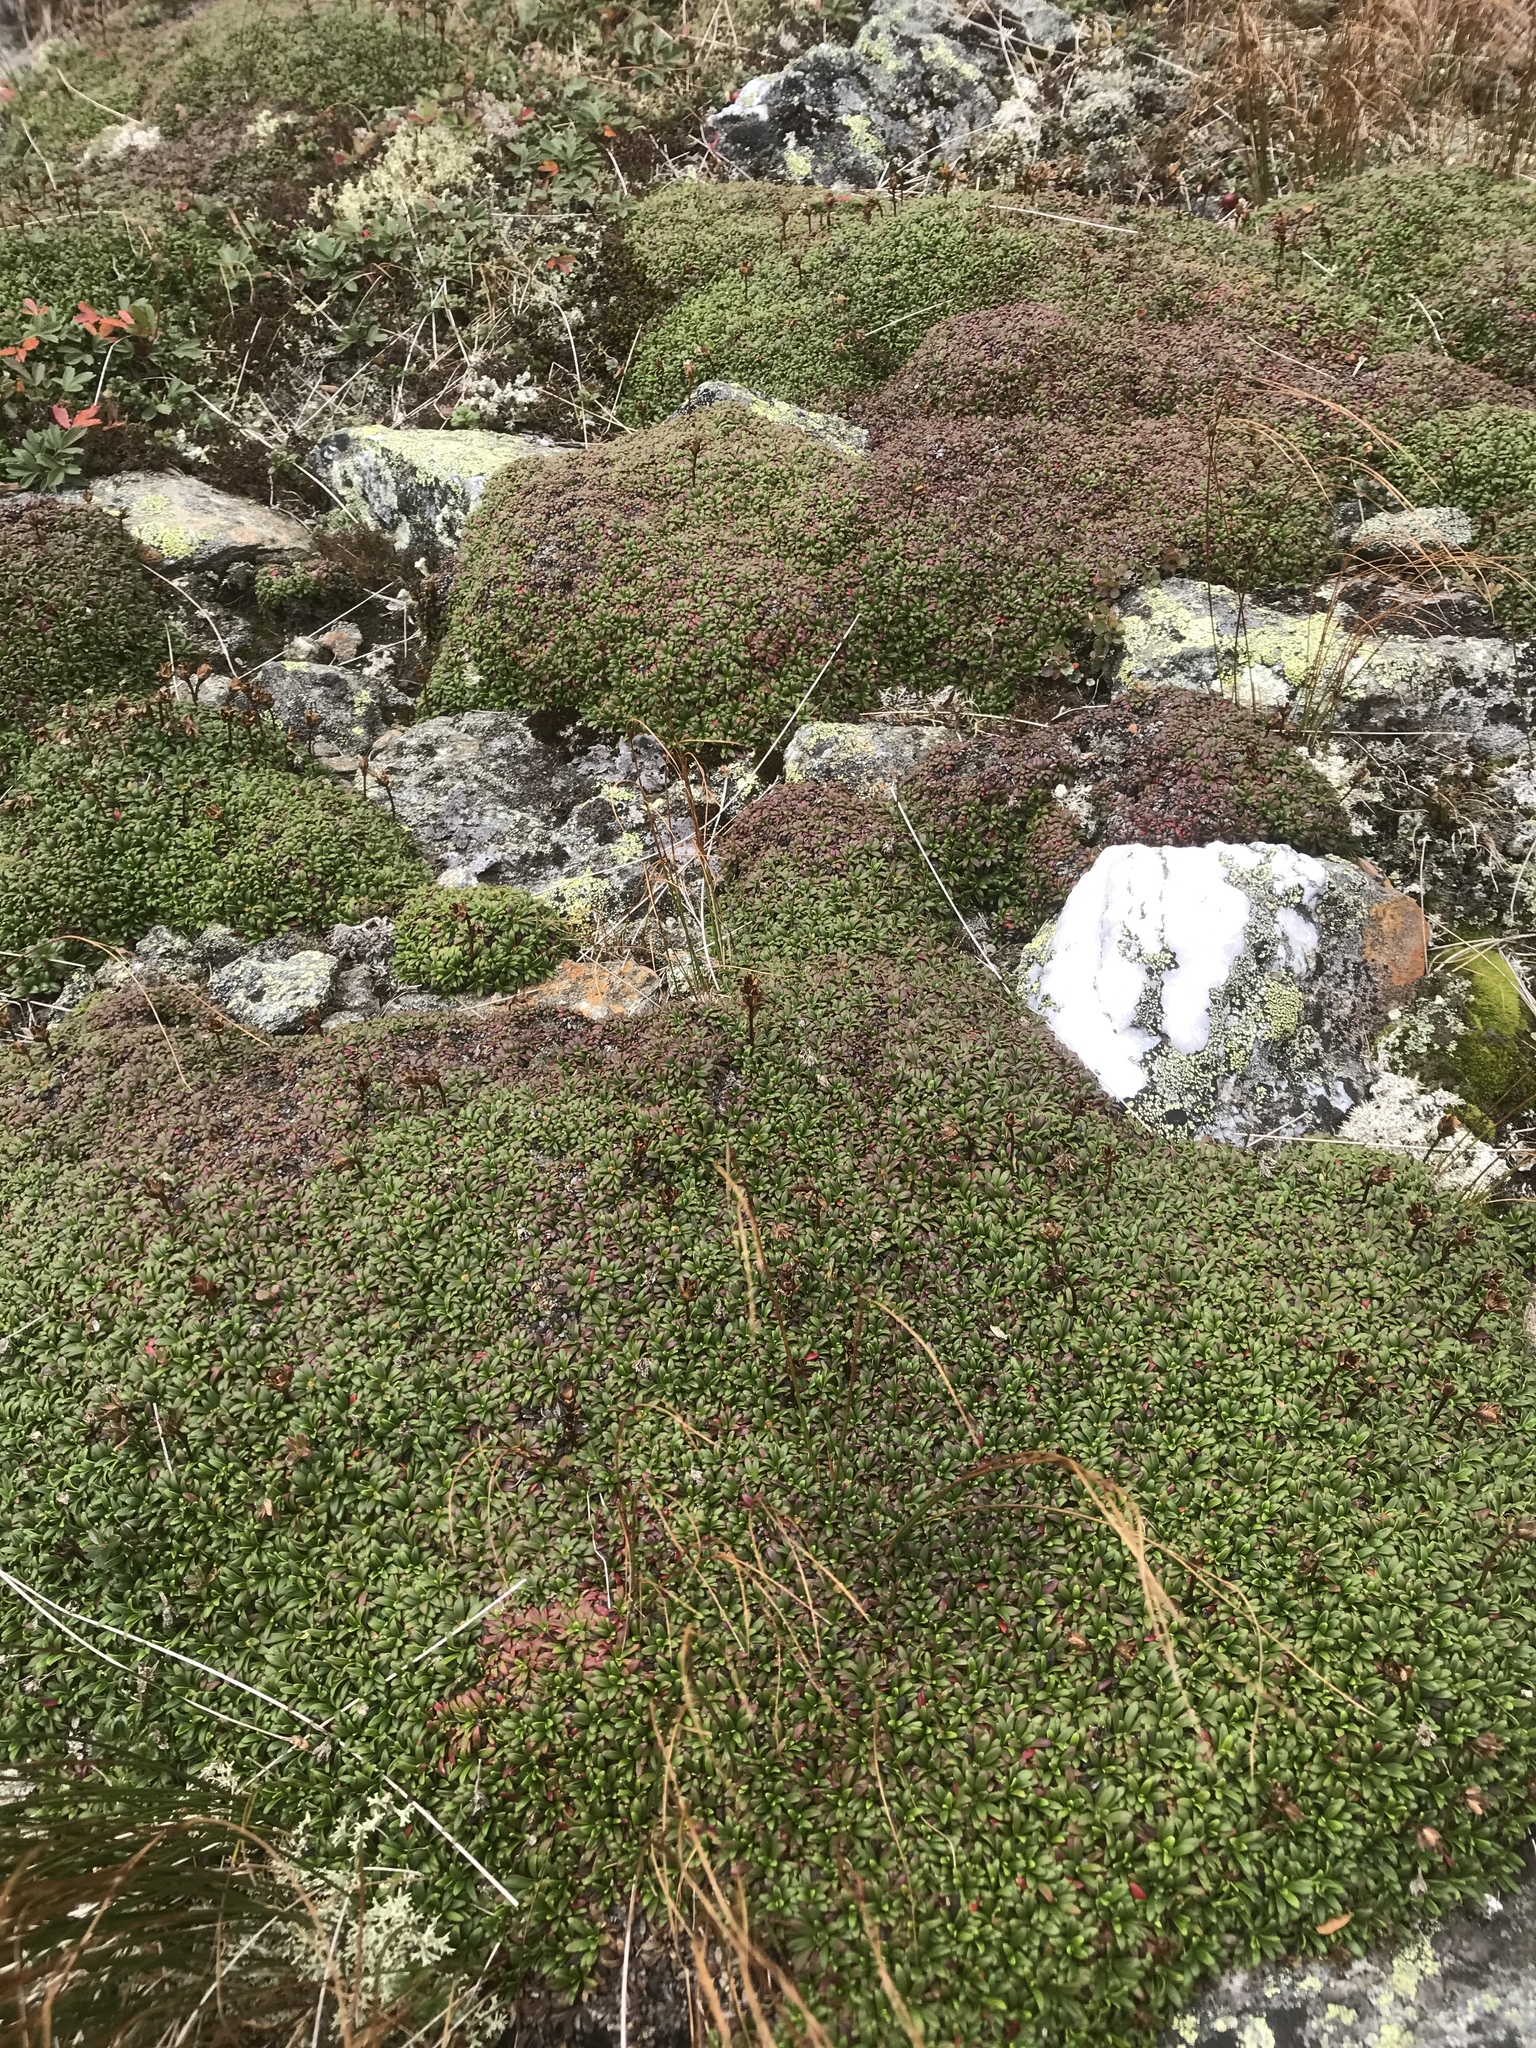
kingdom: Plantae
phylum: Tracheophyta
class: Magnoliopsida
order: Ericales
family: Diapensiaceae
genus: Diapensia
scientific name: Diapensia lapponica
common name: Diapensia
